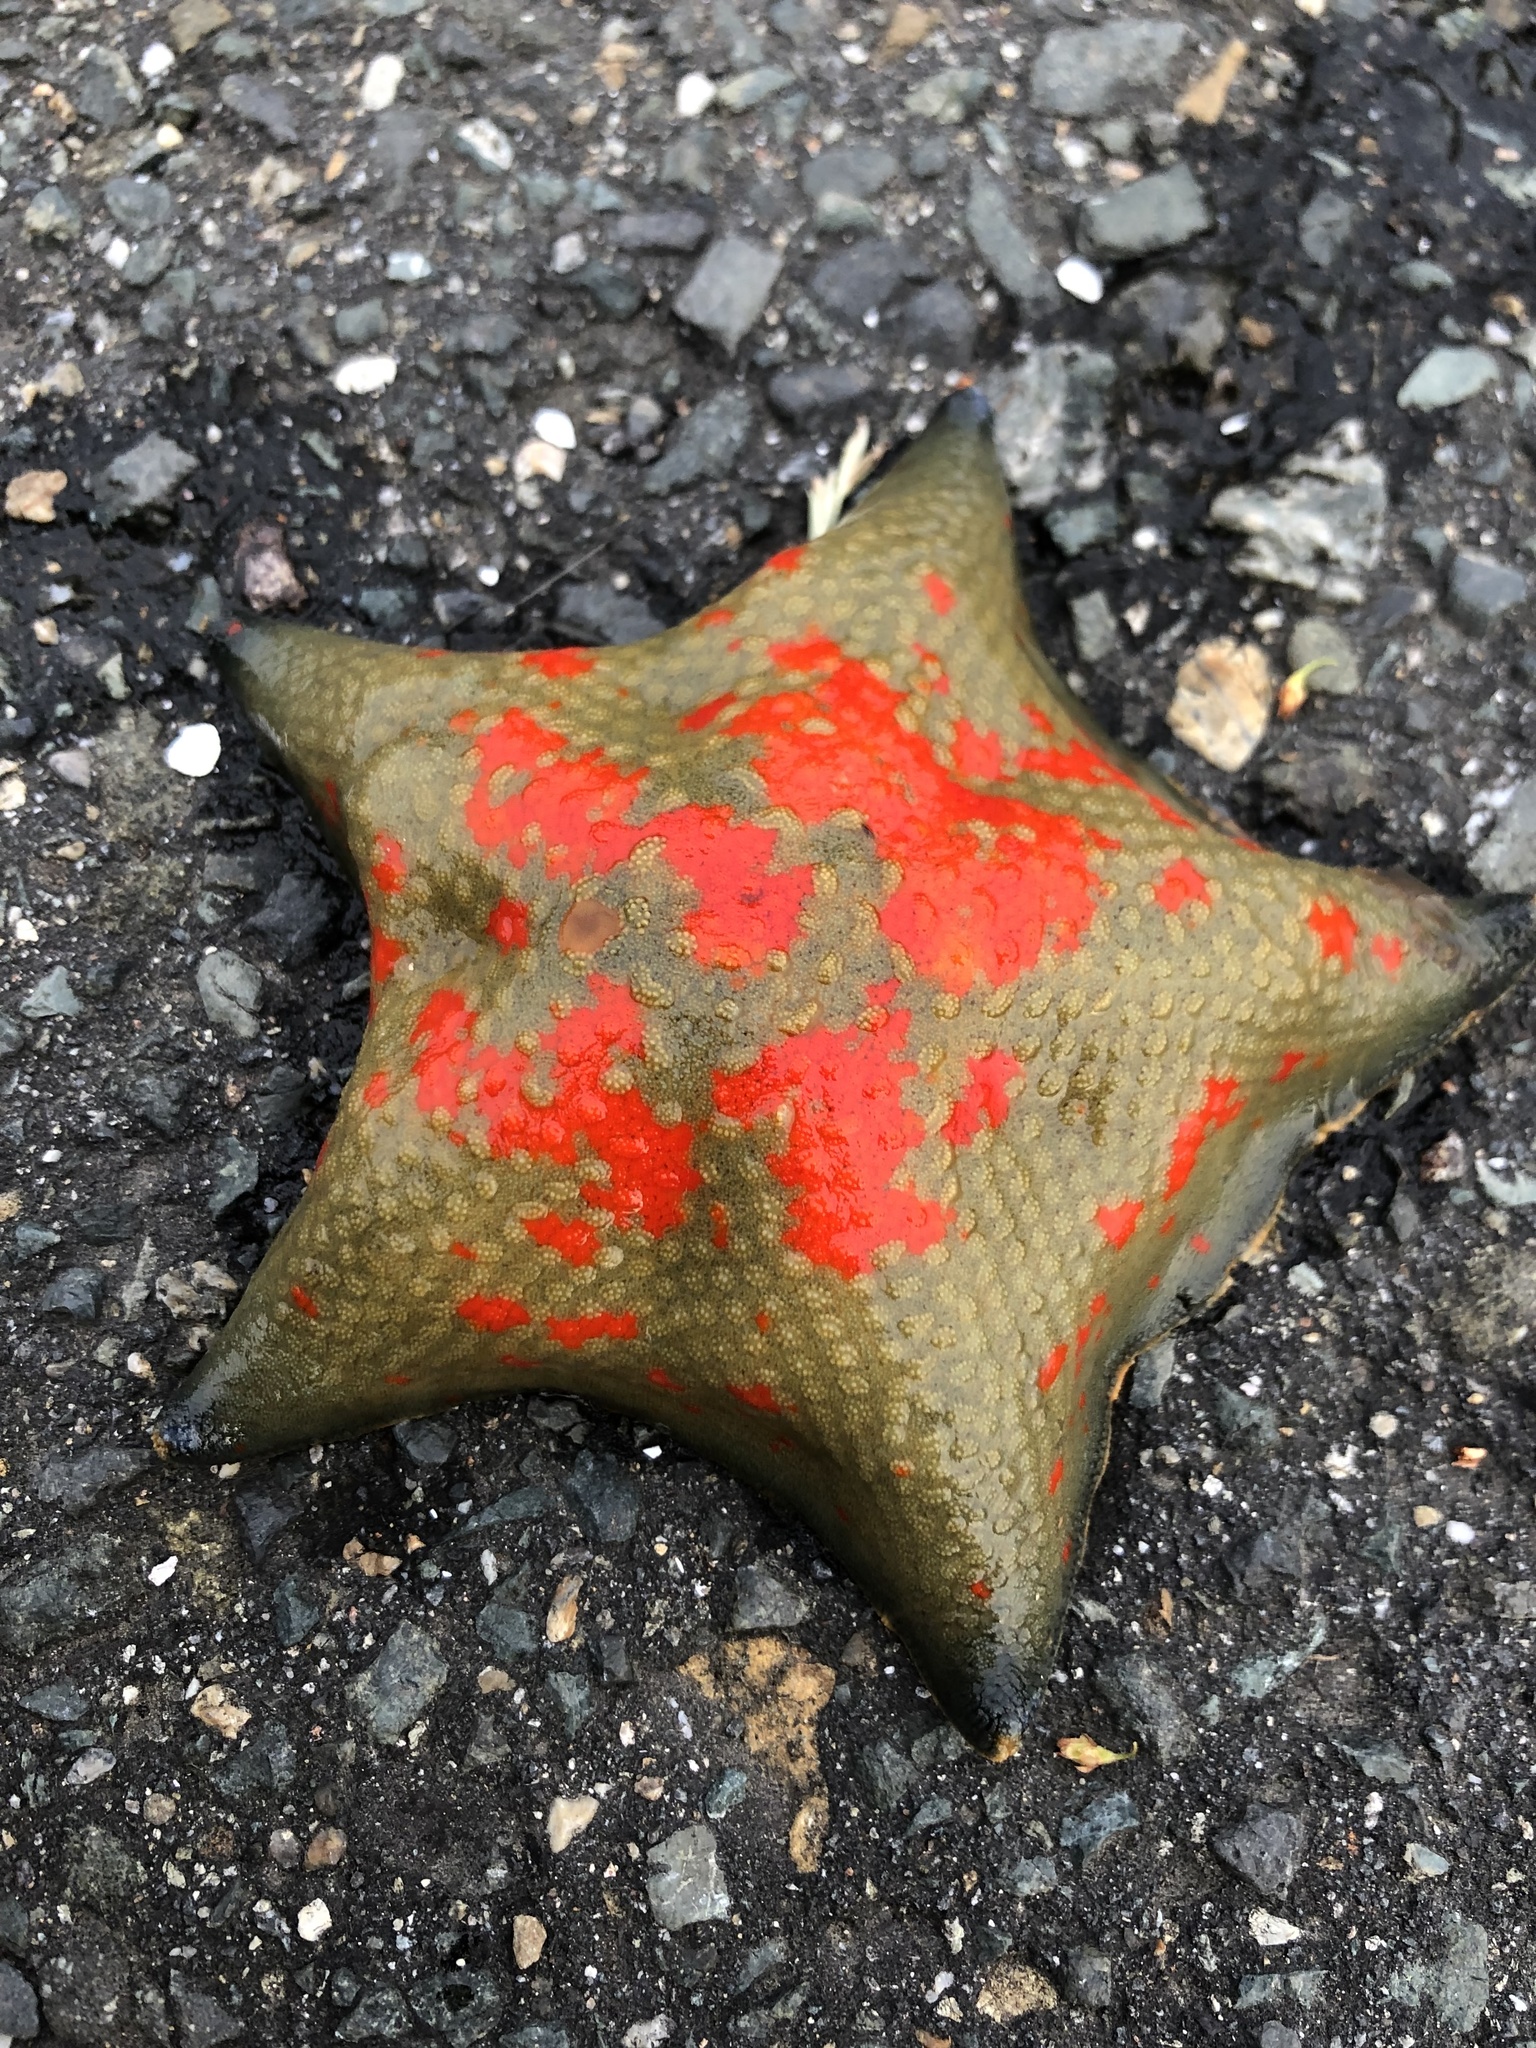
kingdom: Animalia
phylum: Echinodermata
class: Asteroidea
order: Valvatida
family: Asterinidae
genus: Patiria
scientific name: Patiria pectinifera
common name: Blue bat star
